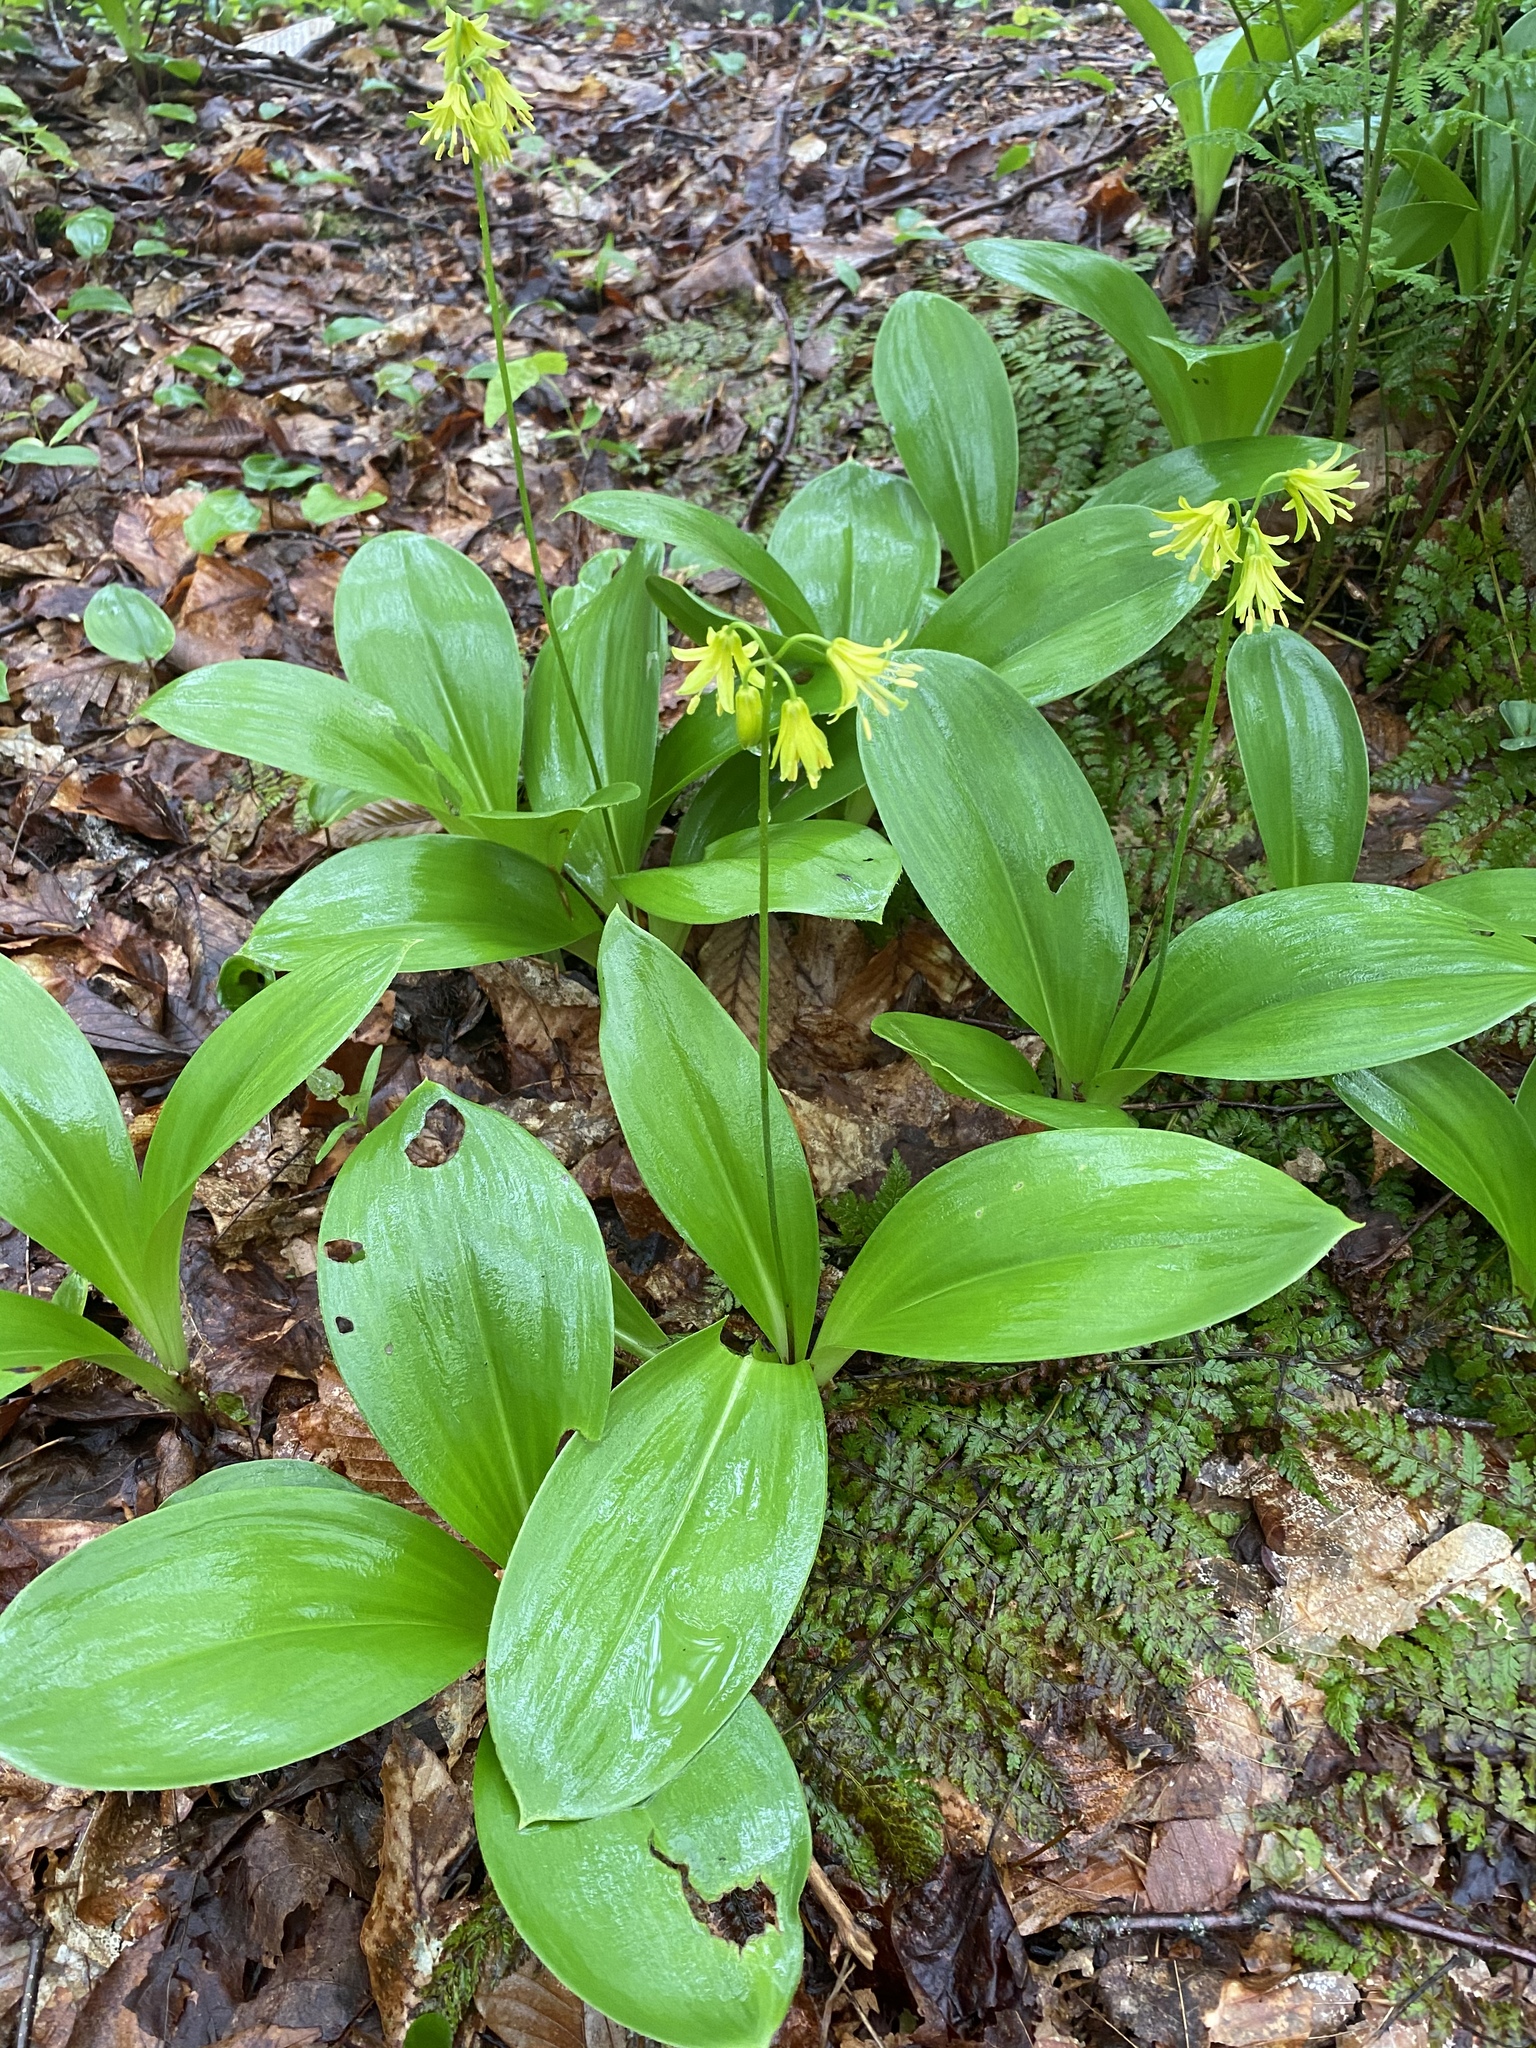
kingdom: Plantae
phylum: Tracheophyta
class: Liliopsida
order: Liliales
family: Liliaceae
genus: Clintonia
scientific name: Clintonia borealis
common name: Yellow clintonia
